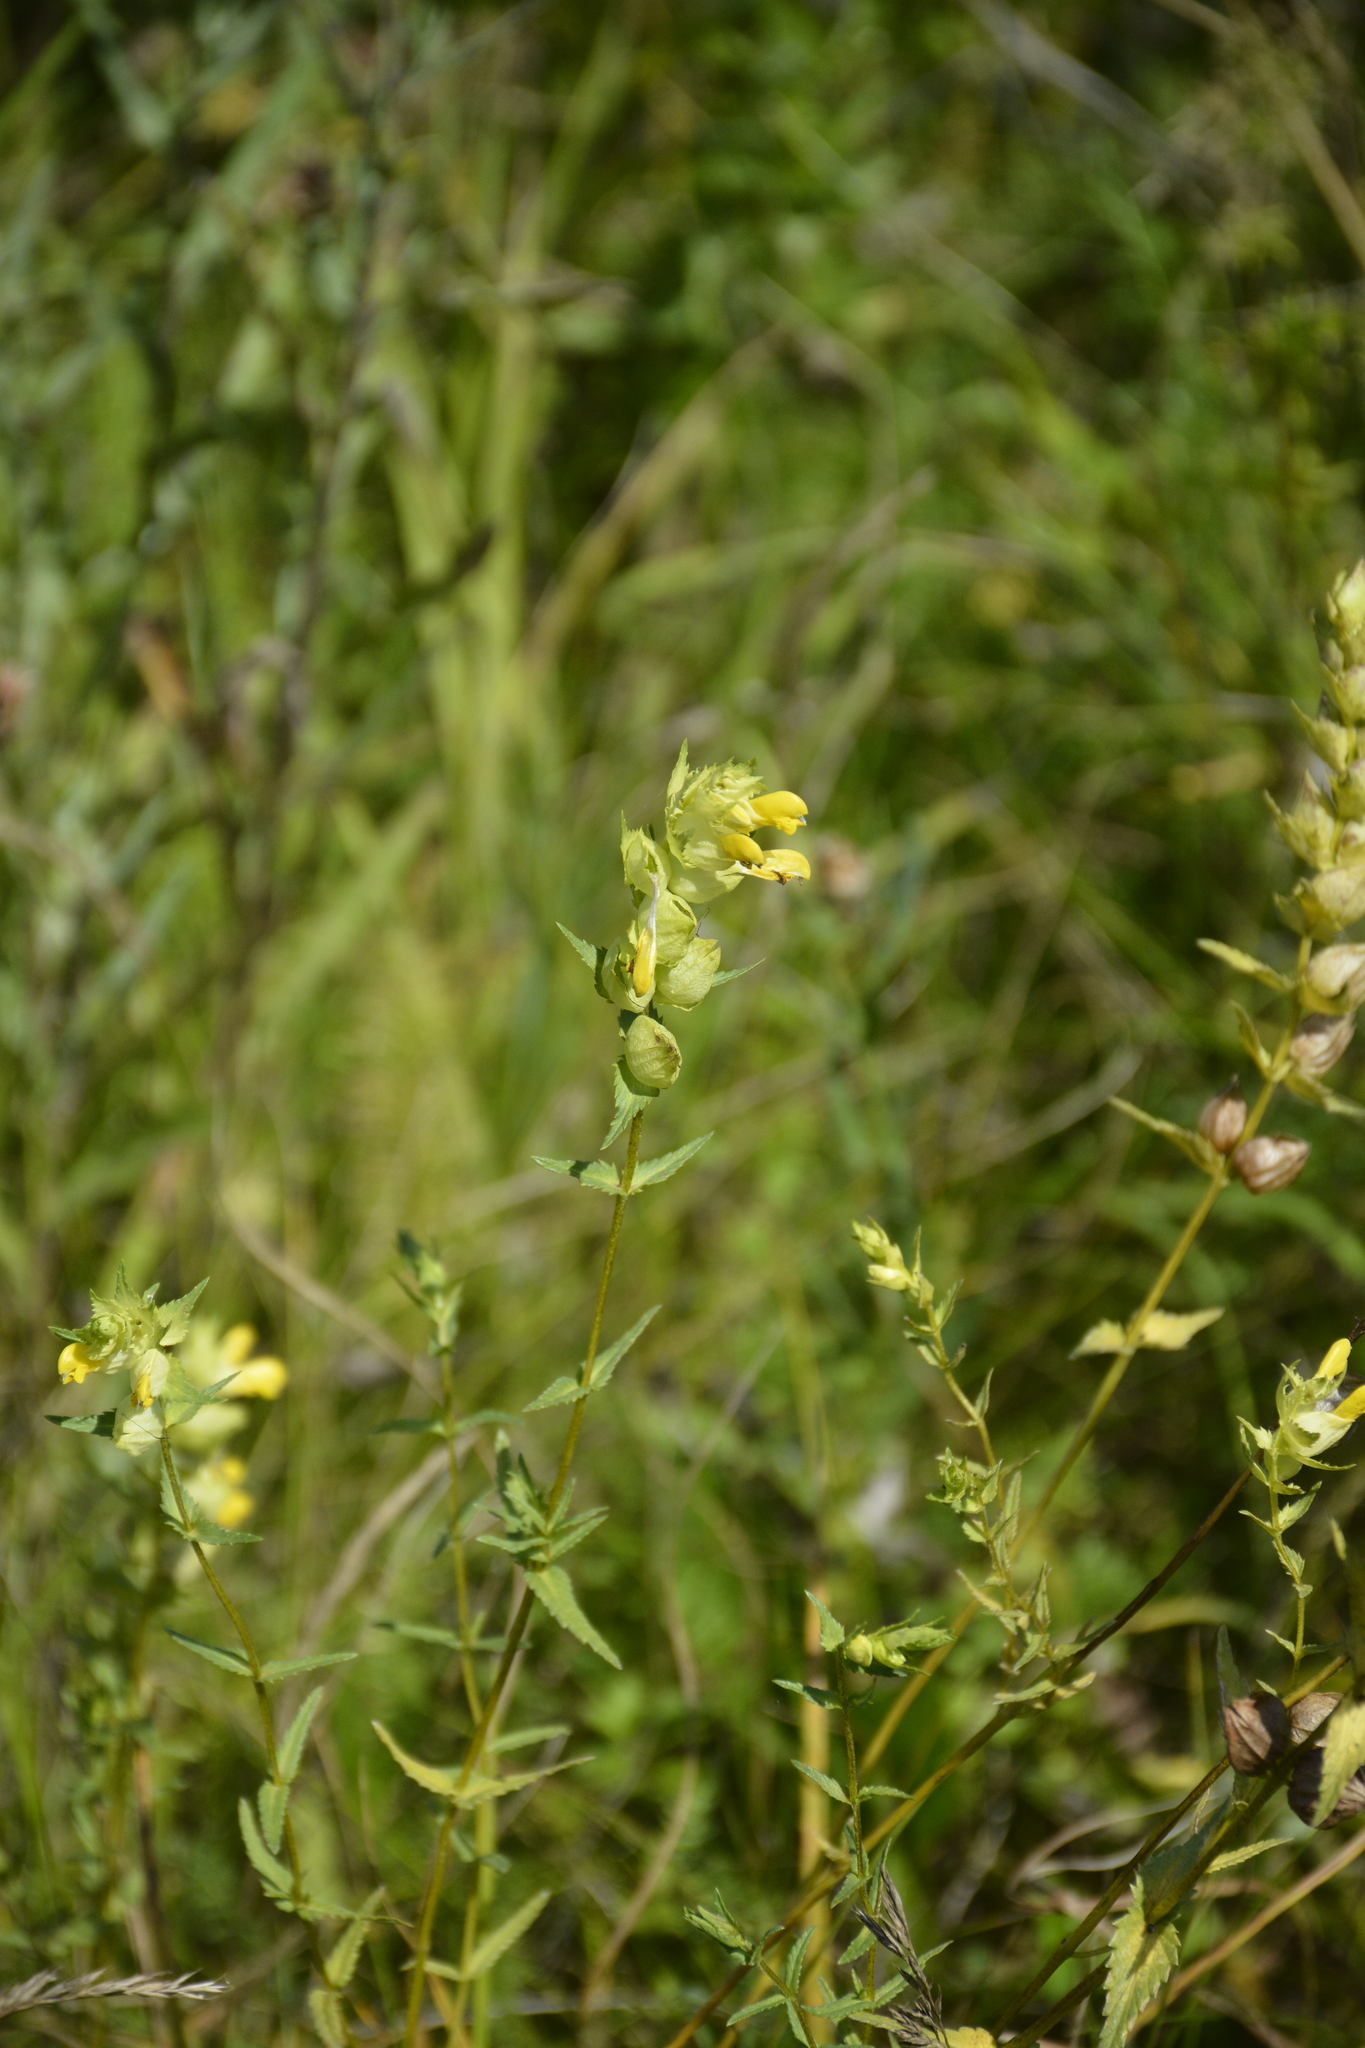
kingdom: Plantae
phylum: Tracheophyta
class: Magnoliopsida
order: Lamiales
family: Orobanchaceae
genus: Rhinanthus
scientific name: Rhinanthus serotinus
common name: Late-flowering yellow rattle
